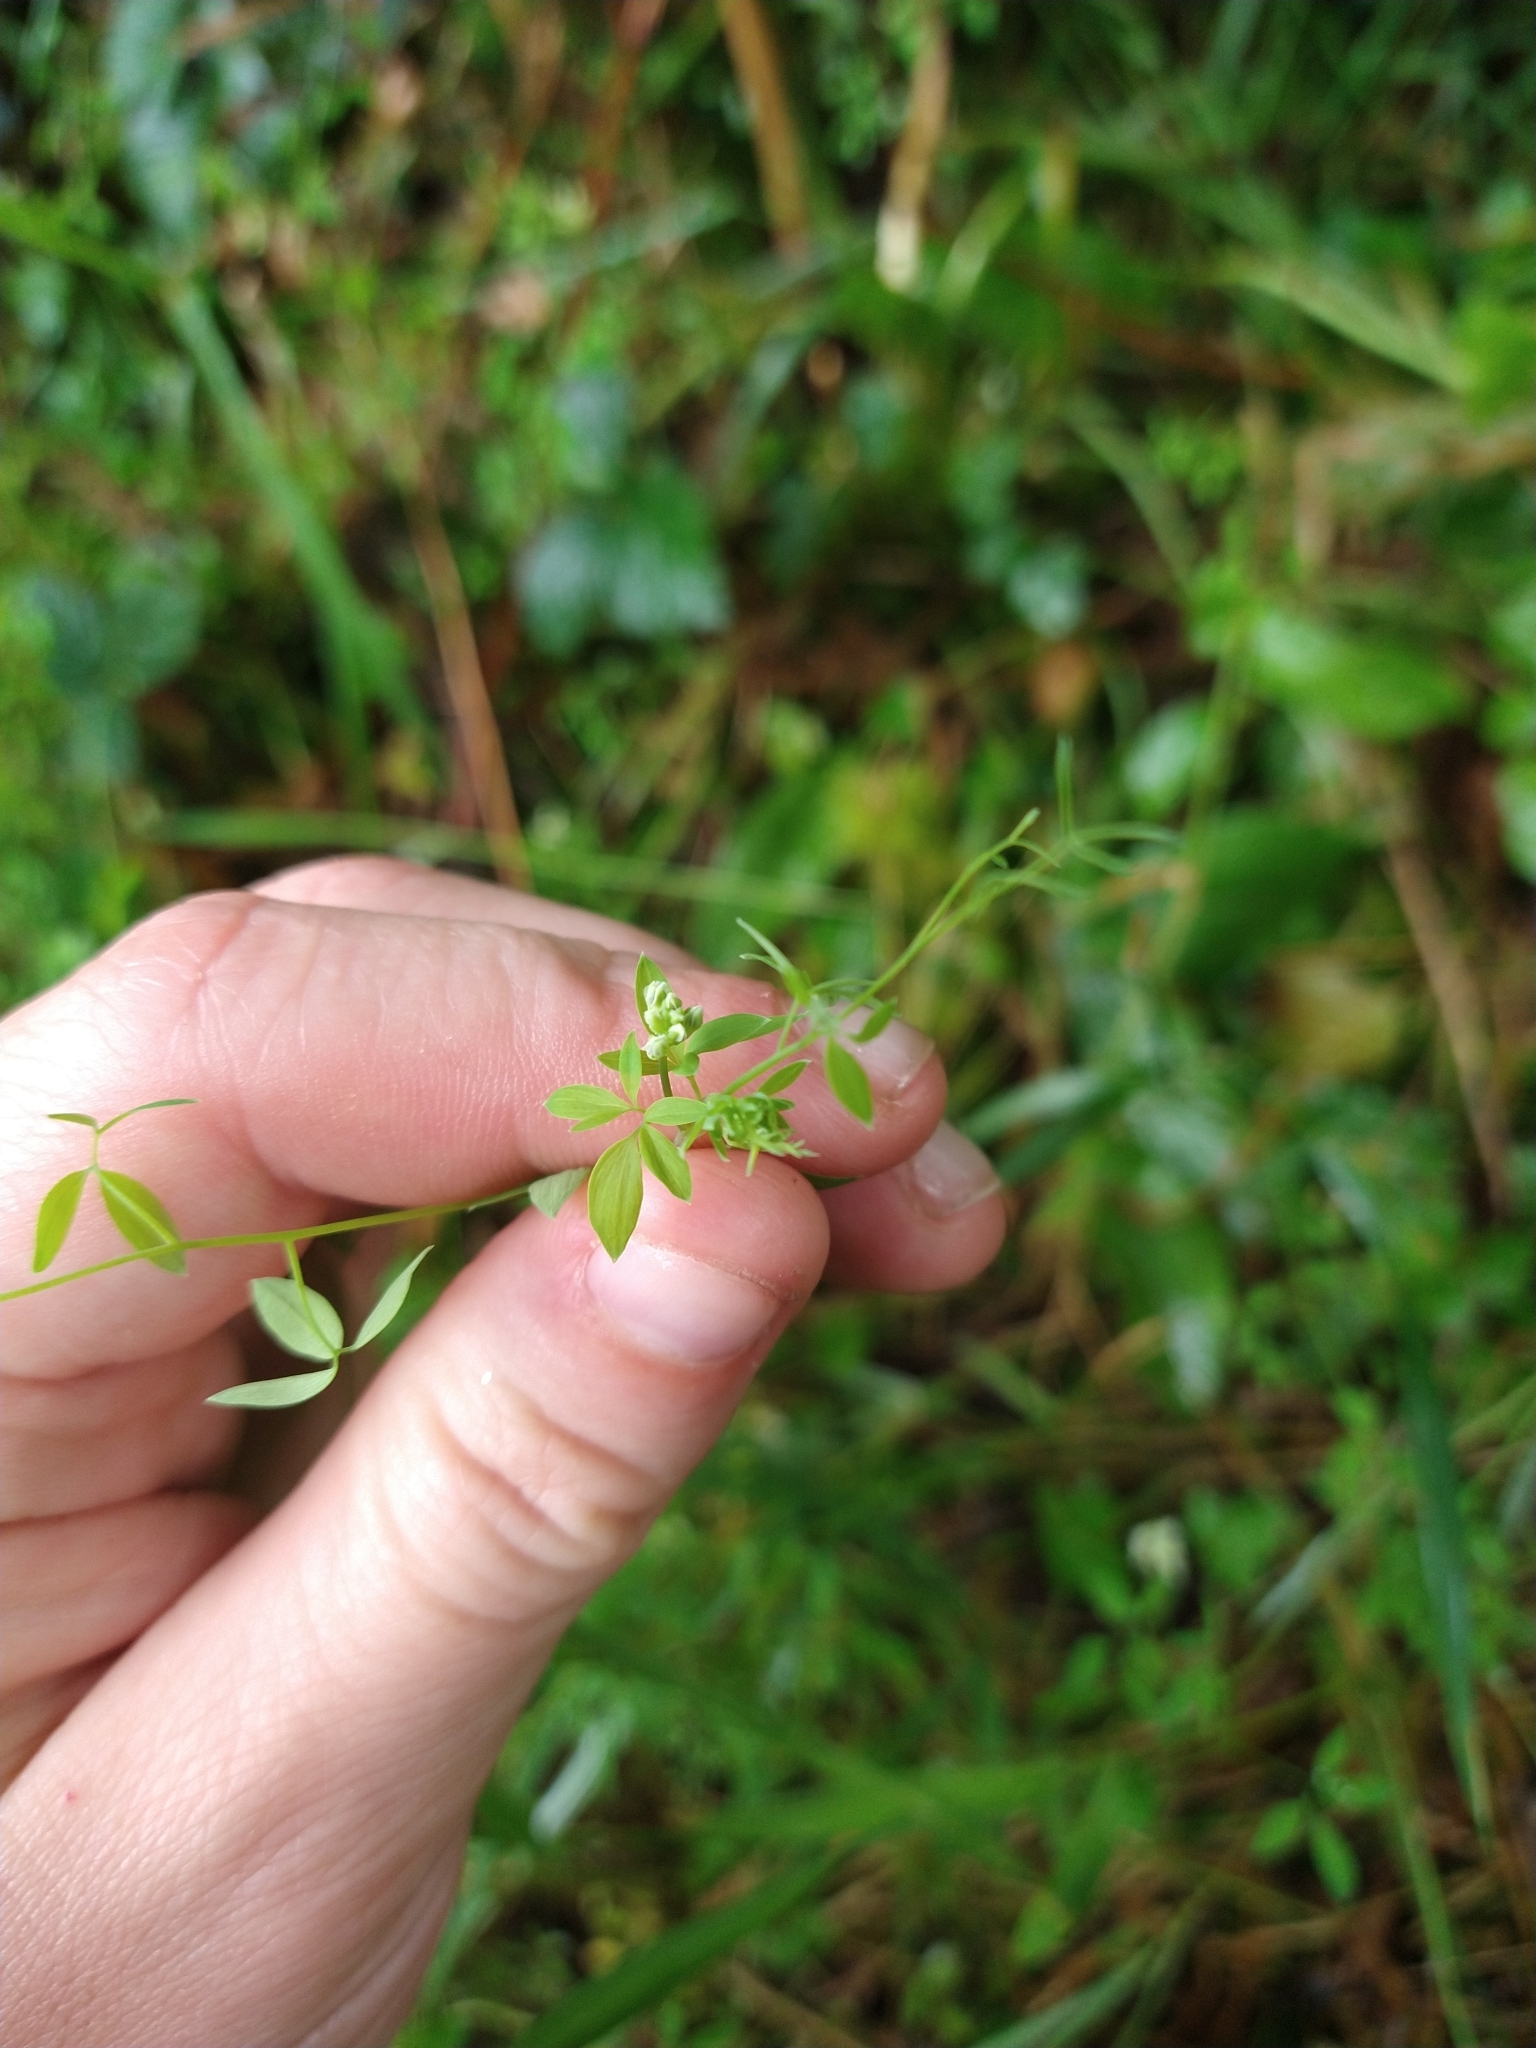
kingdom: Plantae
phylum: Tracheophyta
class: Magnoliopsida
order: Ranunculales
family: Papaveraceae
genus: Ceratocapnos
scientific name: Ceratocapnos claviculata
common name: Climbing corydalis
